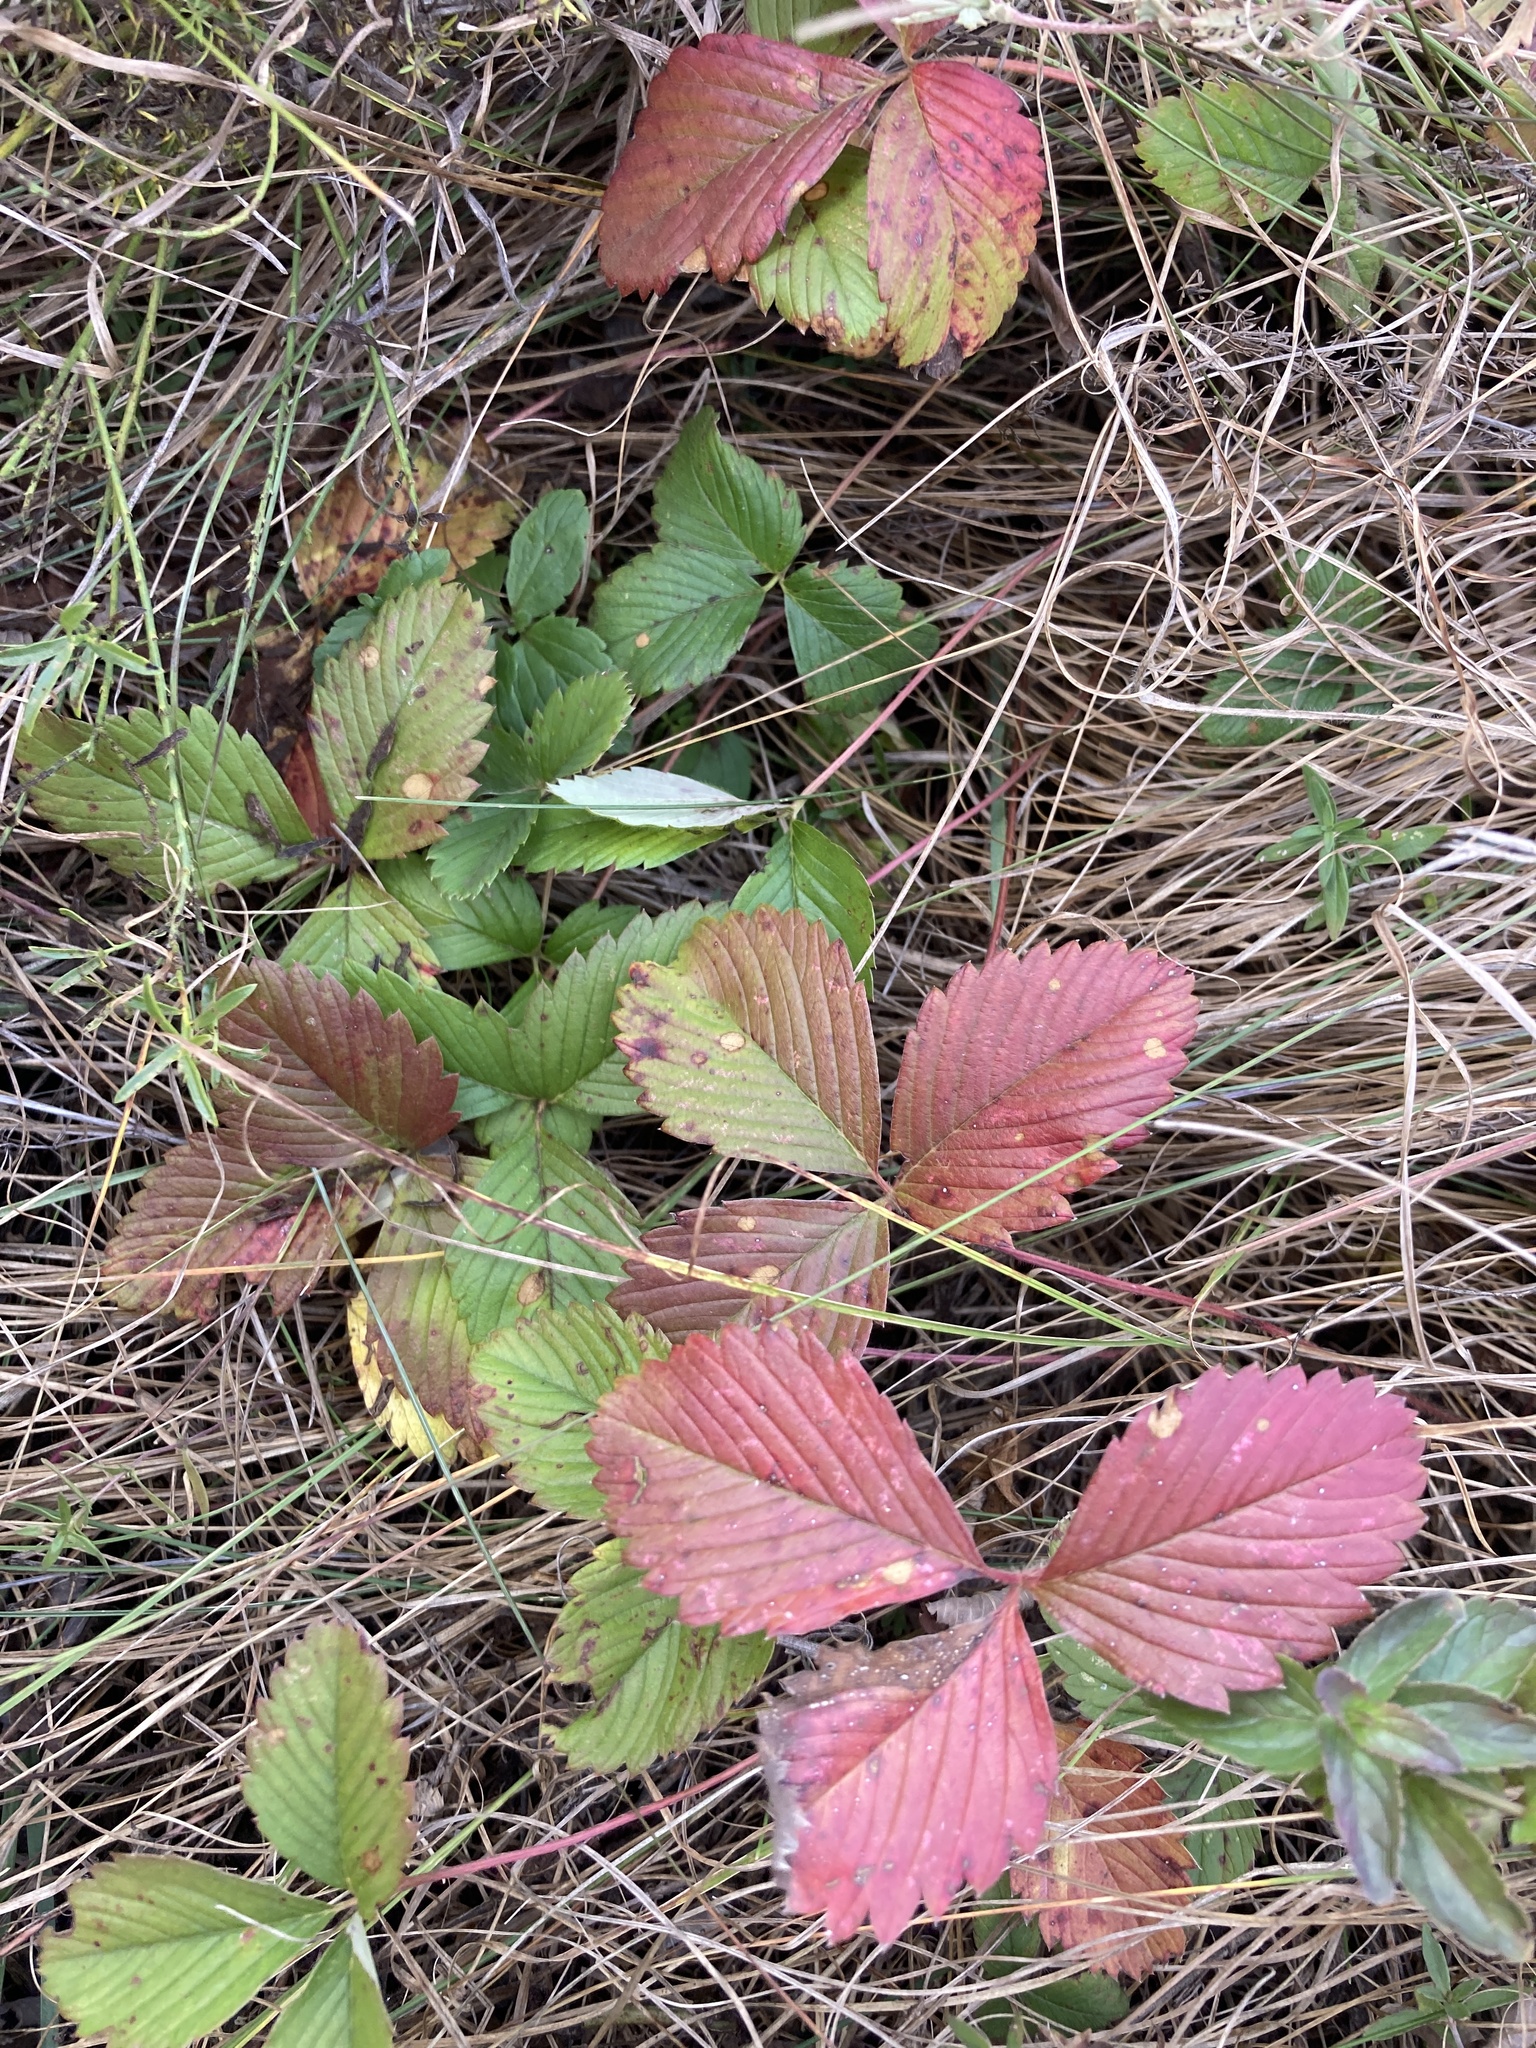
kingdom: Plantae
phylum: Tracheophyta
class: Magnoliopsida
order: Rosales
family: Rosaceae
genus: Fragaria
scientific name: Fragaria viridis
